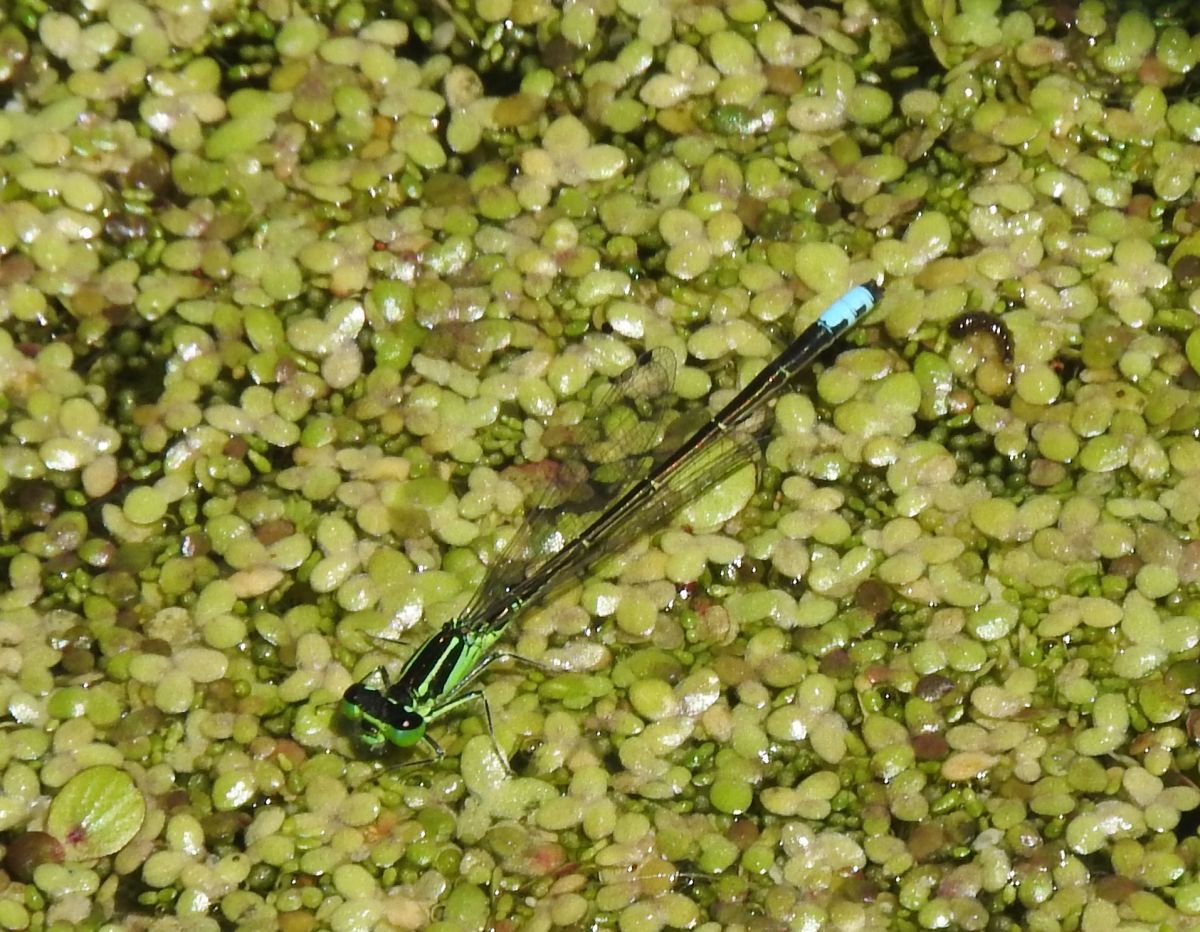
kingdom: Animalia
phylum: Arthropoda
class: Insecta
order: Odonata
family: Coenagrionidae
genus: Ischnura
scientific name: Ischnura verticalis
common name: Eastern forktail
